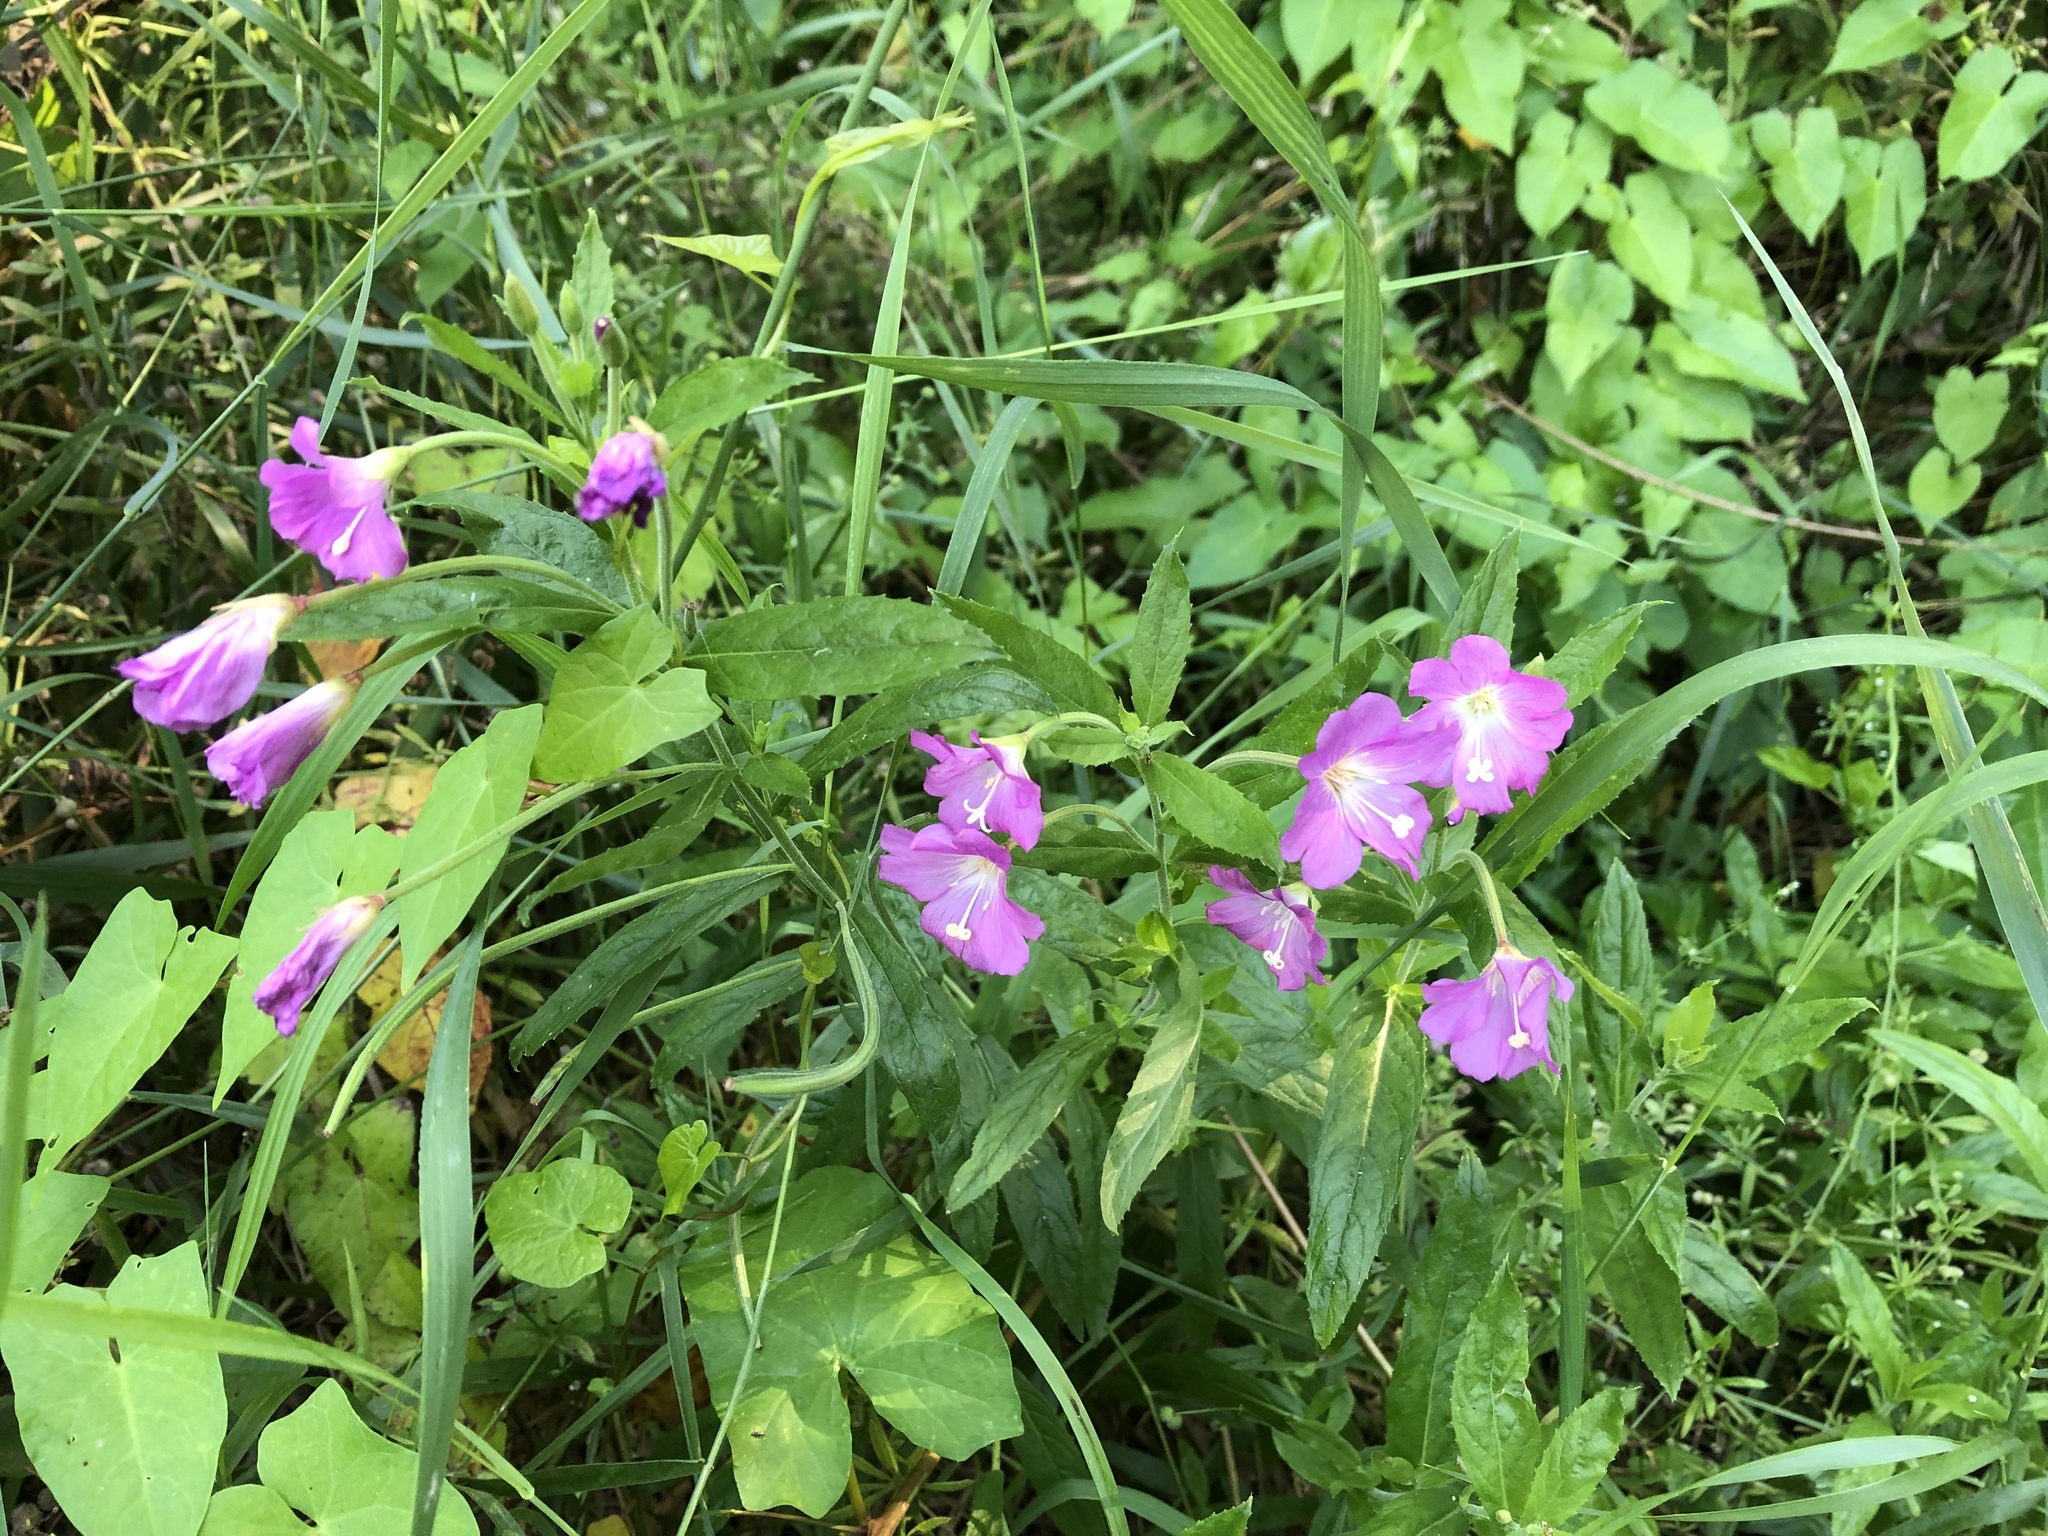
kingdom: Plantae
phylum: Tracheophyta
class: Magnoliopsida
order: Myrtales
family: Onagraceae
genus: Epilobium
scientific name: Epilobium hirsutum
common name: Great willowherb
